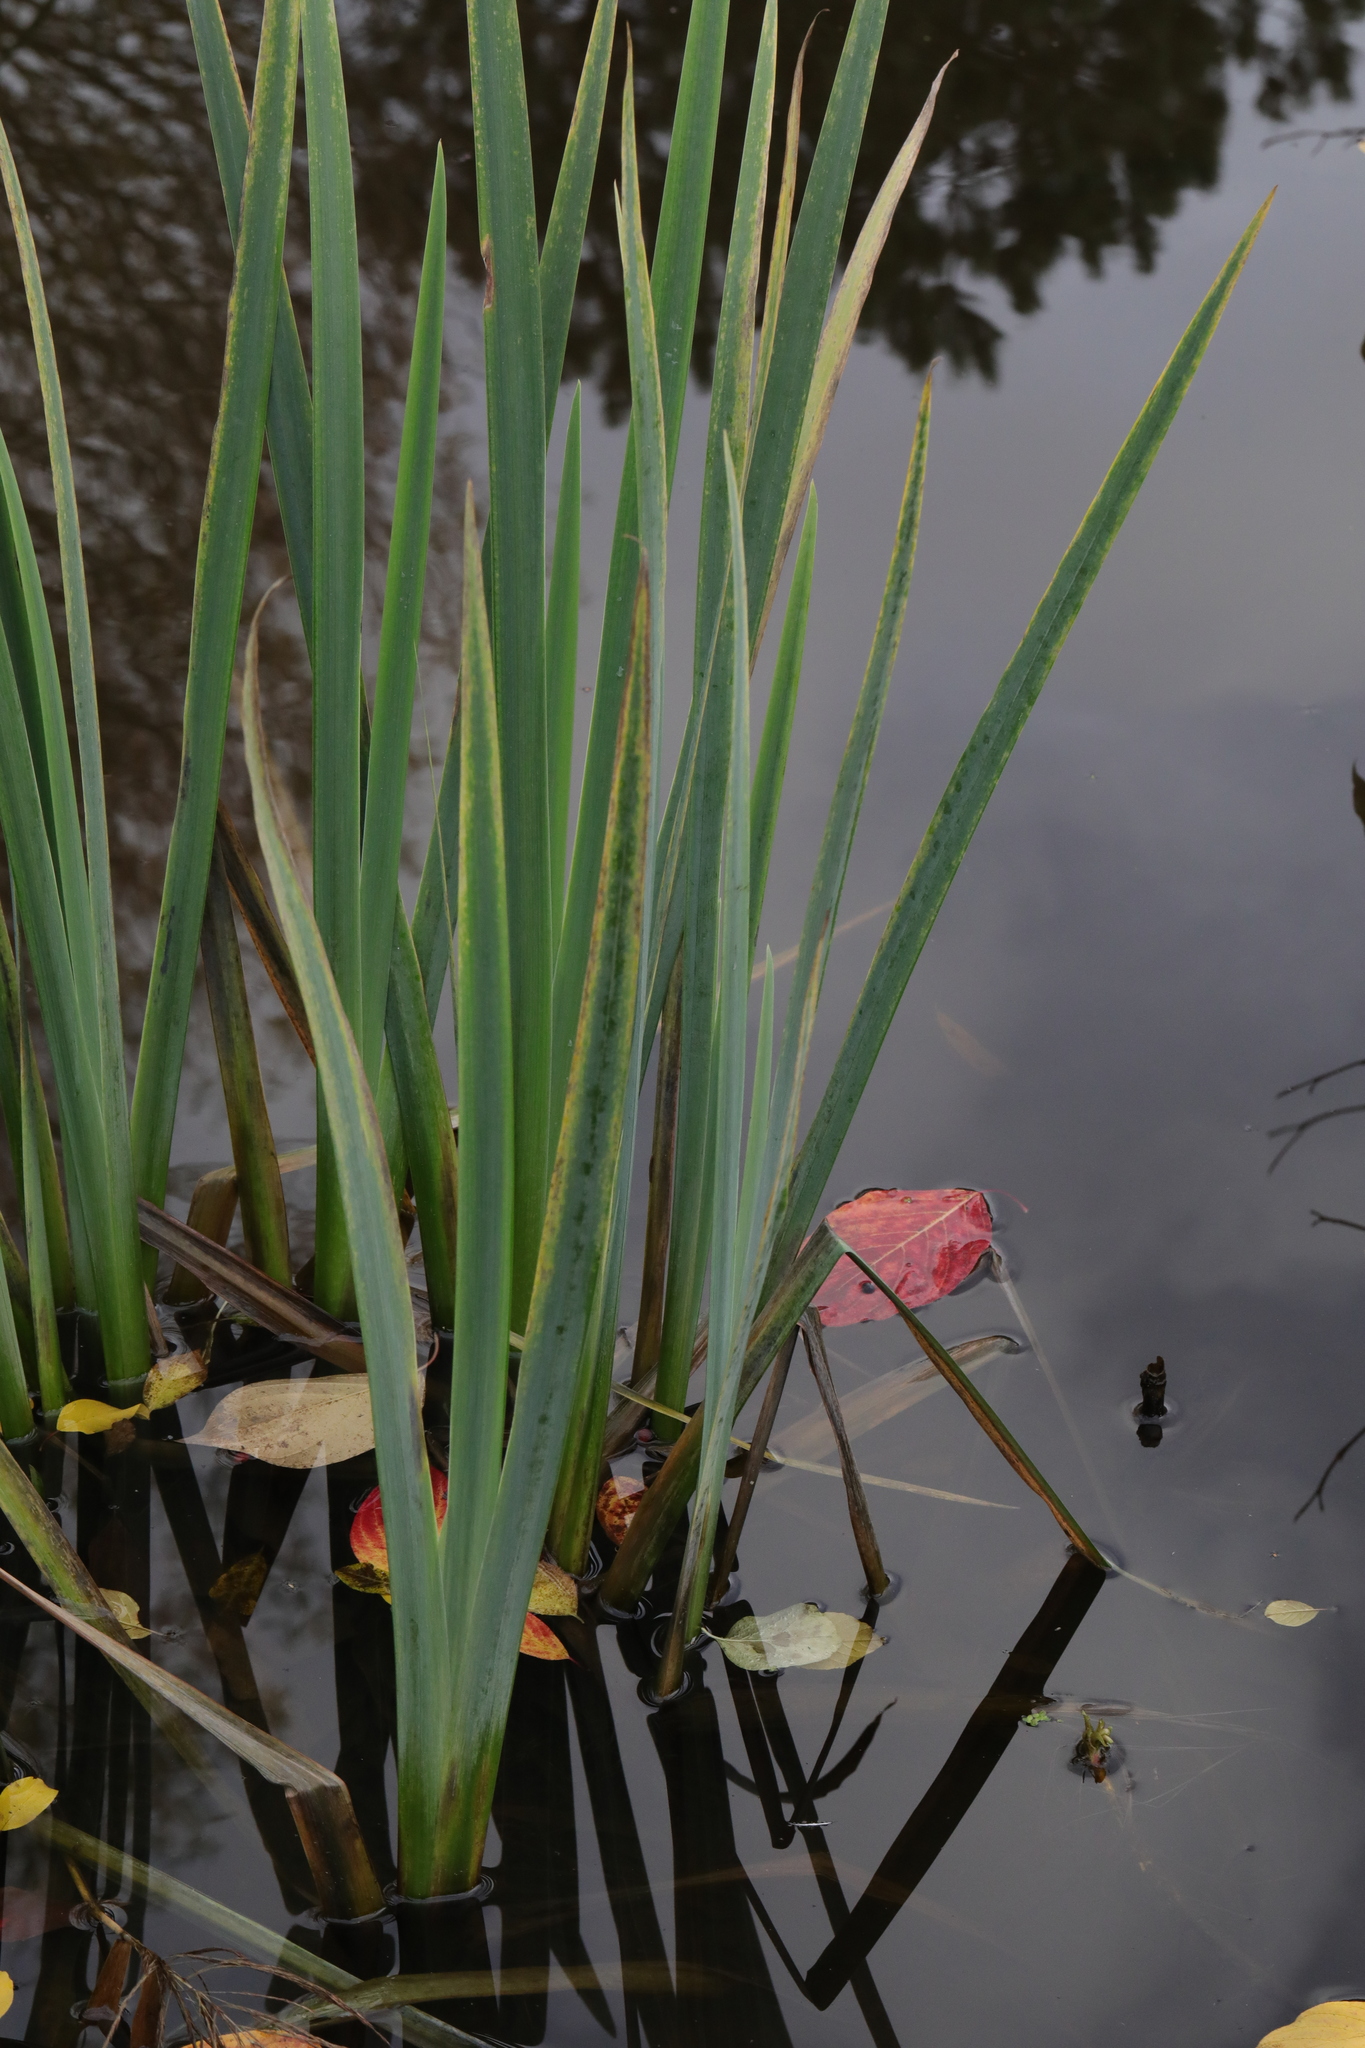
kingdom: Plantae
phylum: Tracheophyta
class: Liliopsida
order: Asparagales
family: Iridaceae
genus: Iris
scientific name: Iris pseudacorus
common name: Yellow flag
